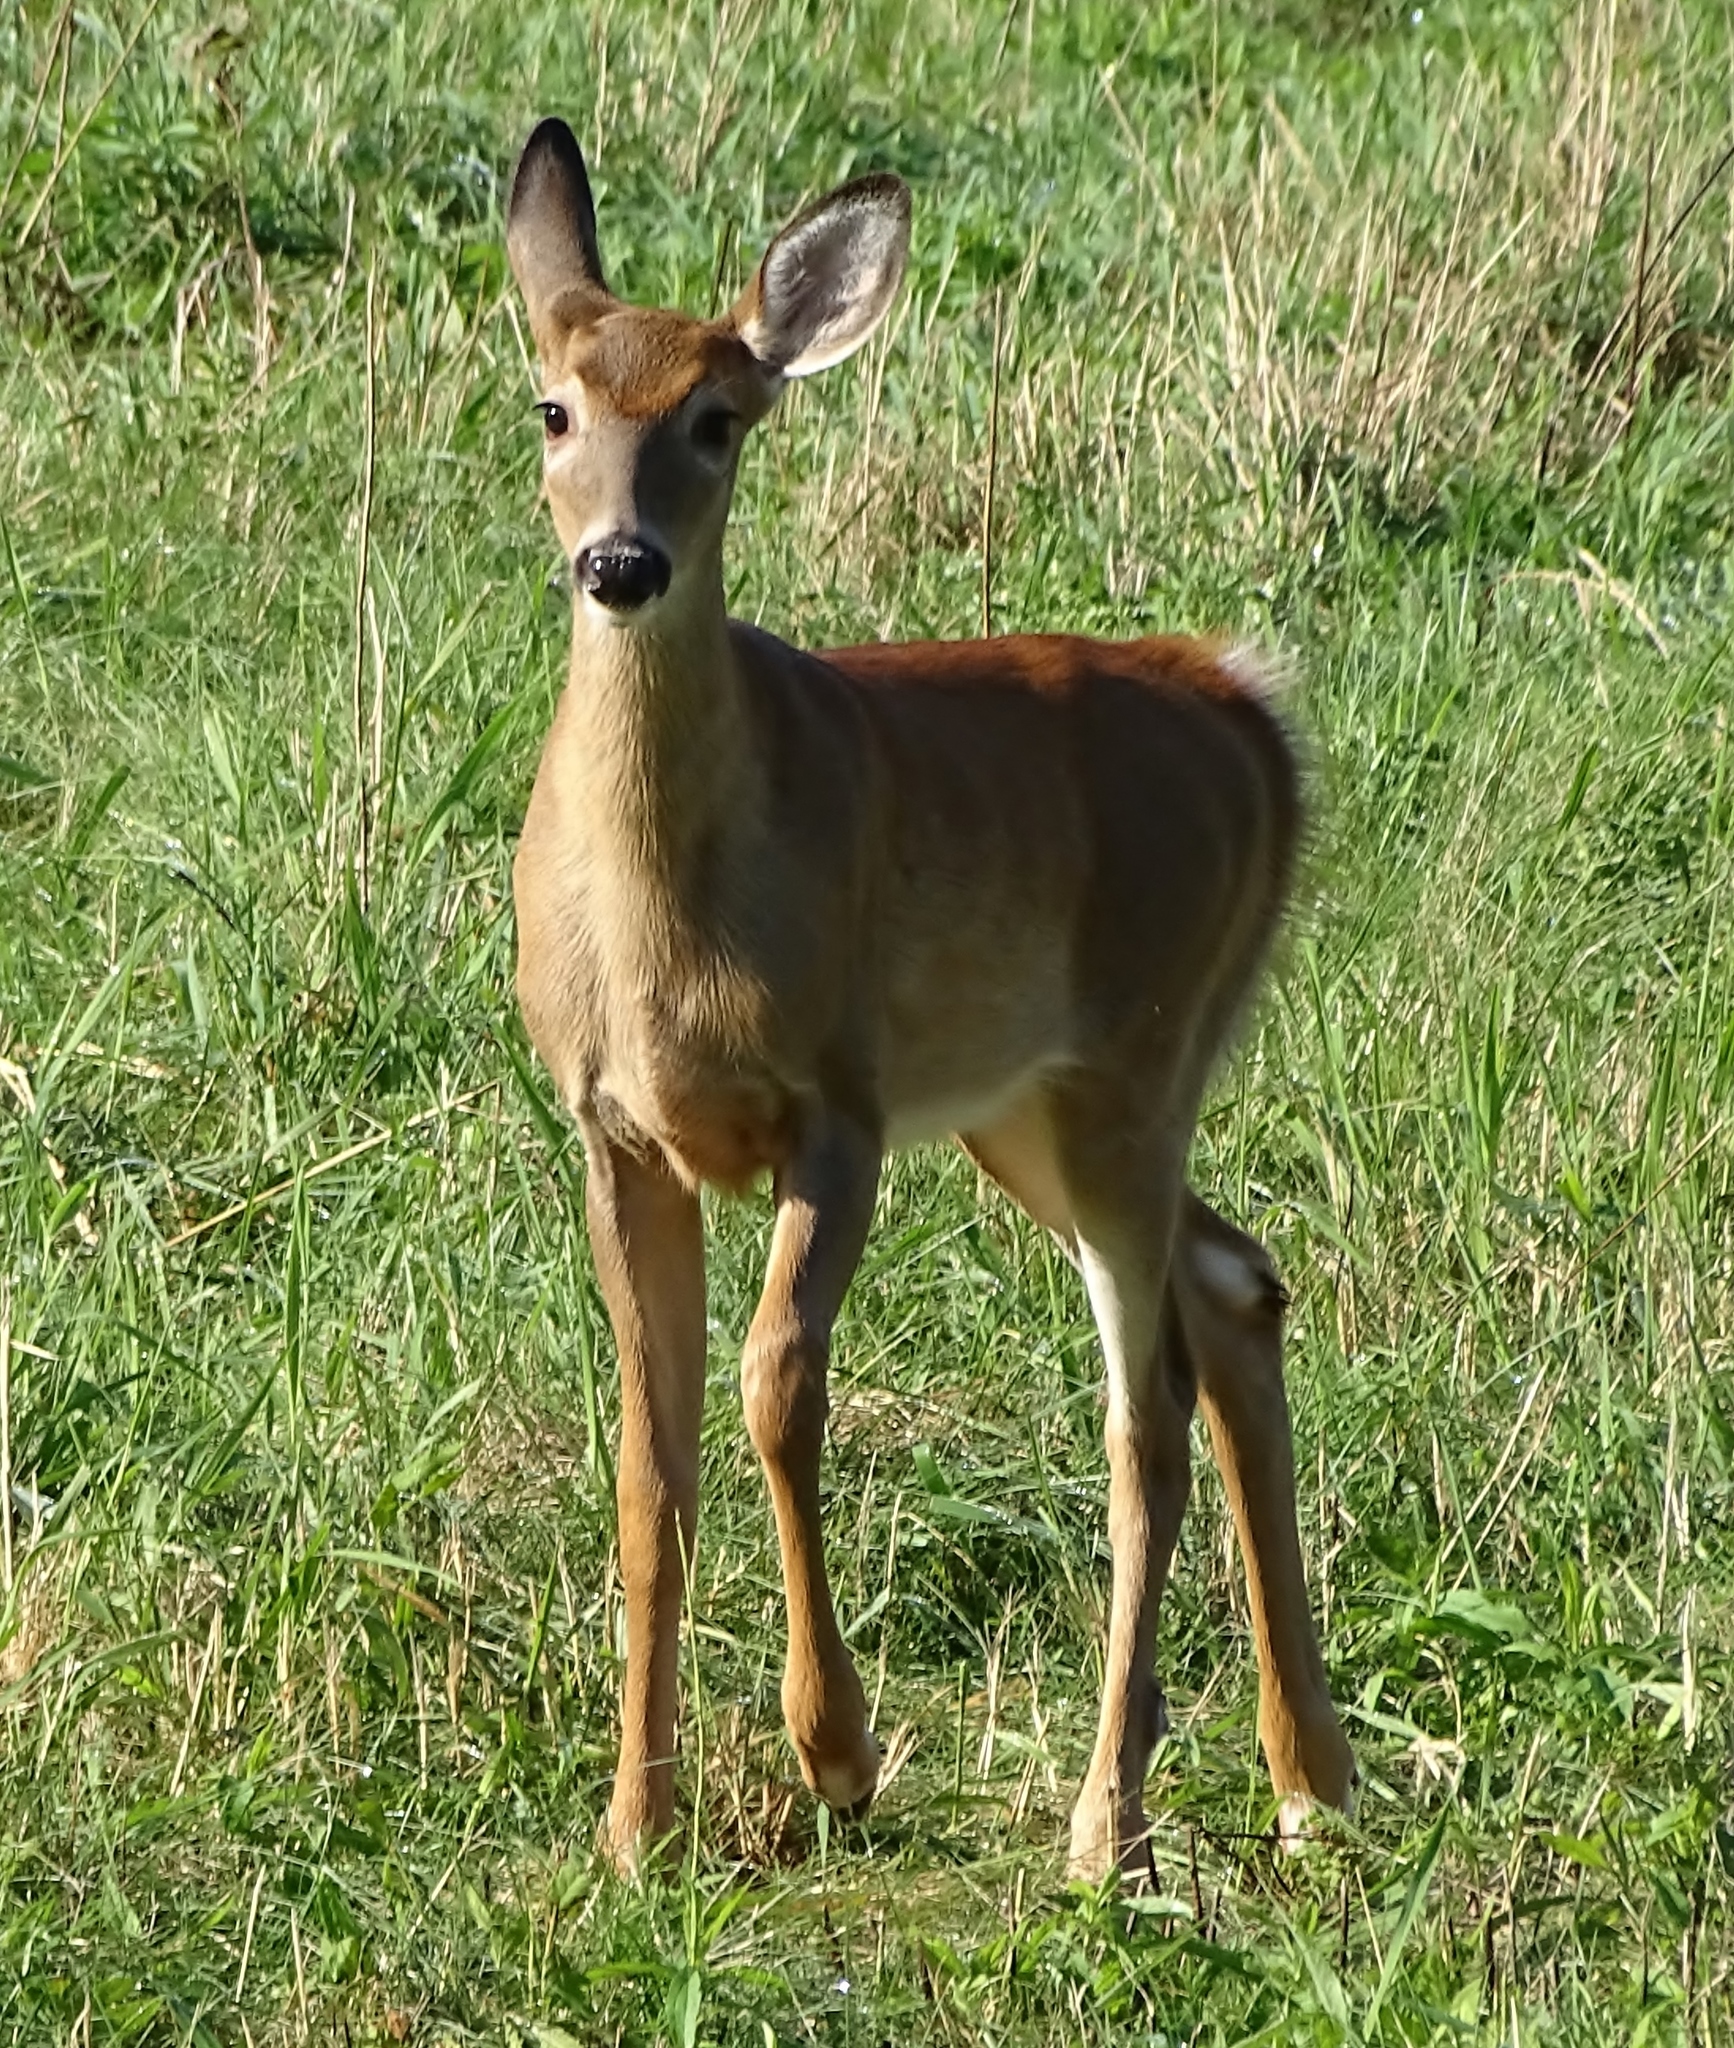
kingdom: Animalia
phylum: Chordata
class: Mammalia
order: Artiodactyla
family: Cervidae
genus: Odocoileus
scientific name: Odocoileus virginianus
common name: White-tailed deer
